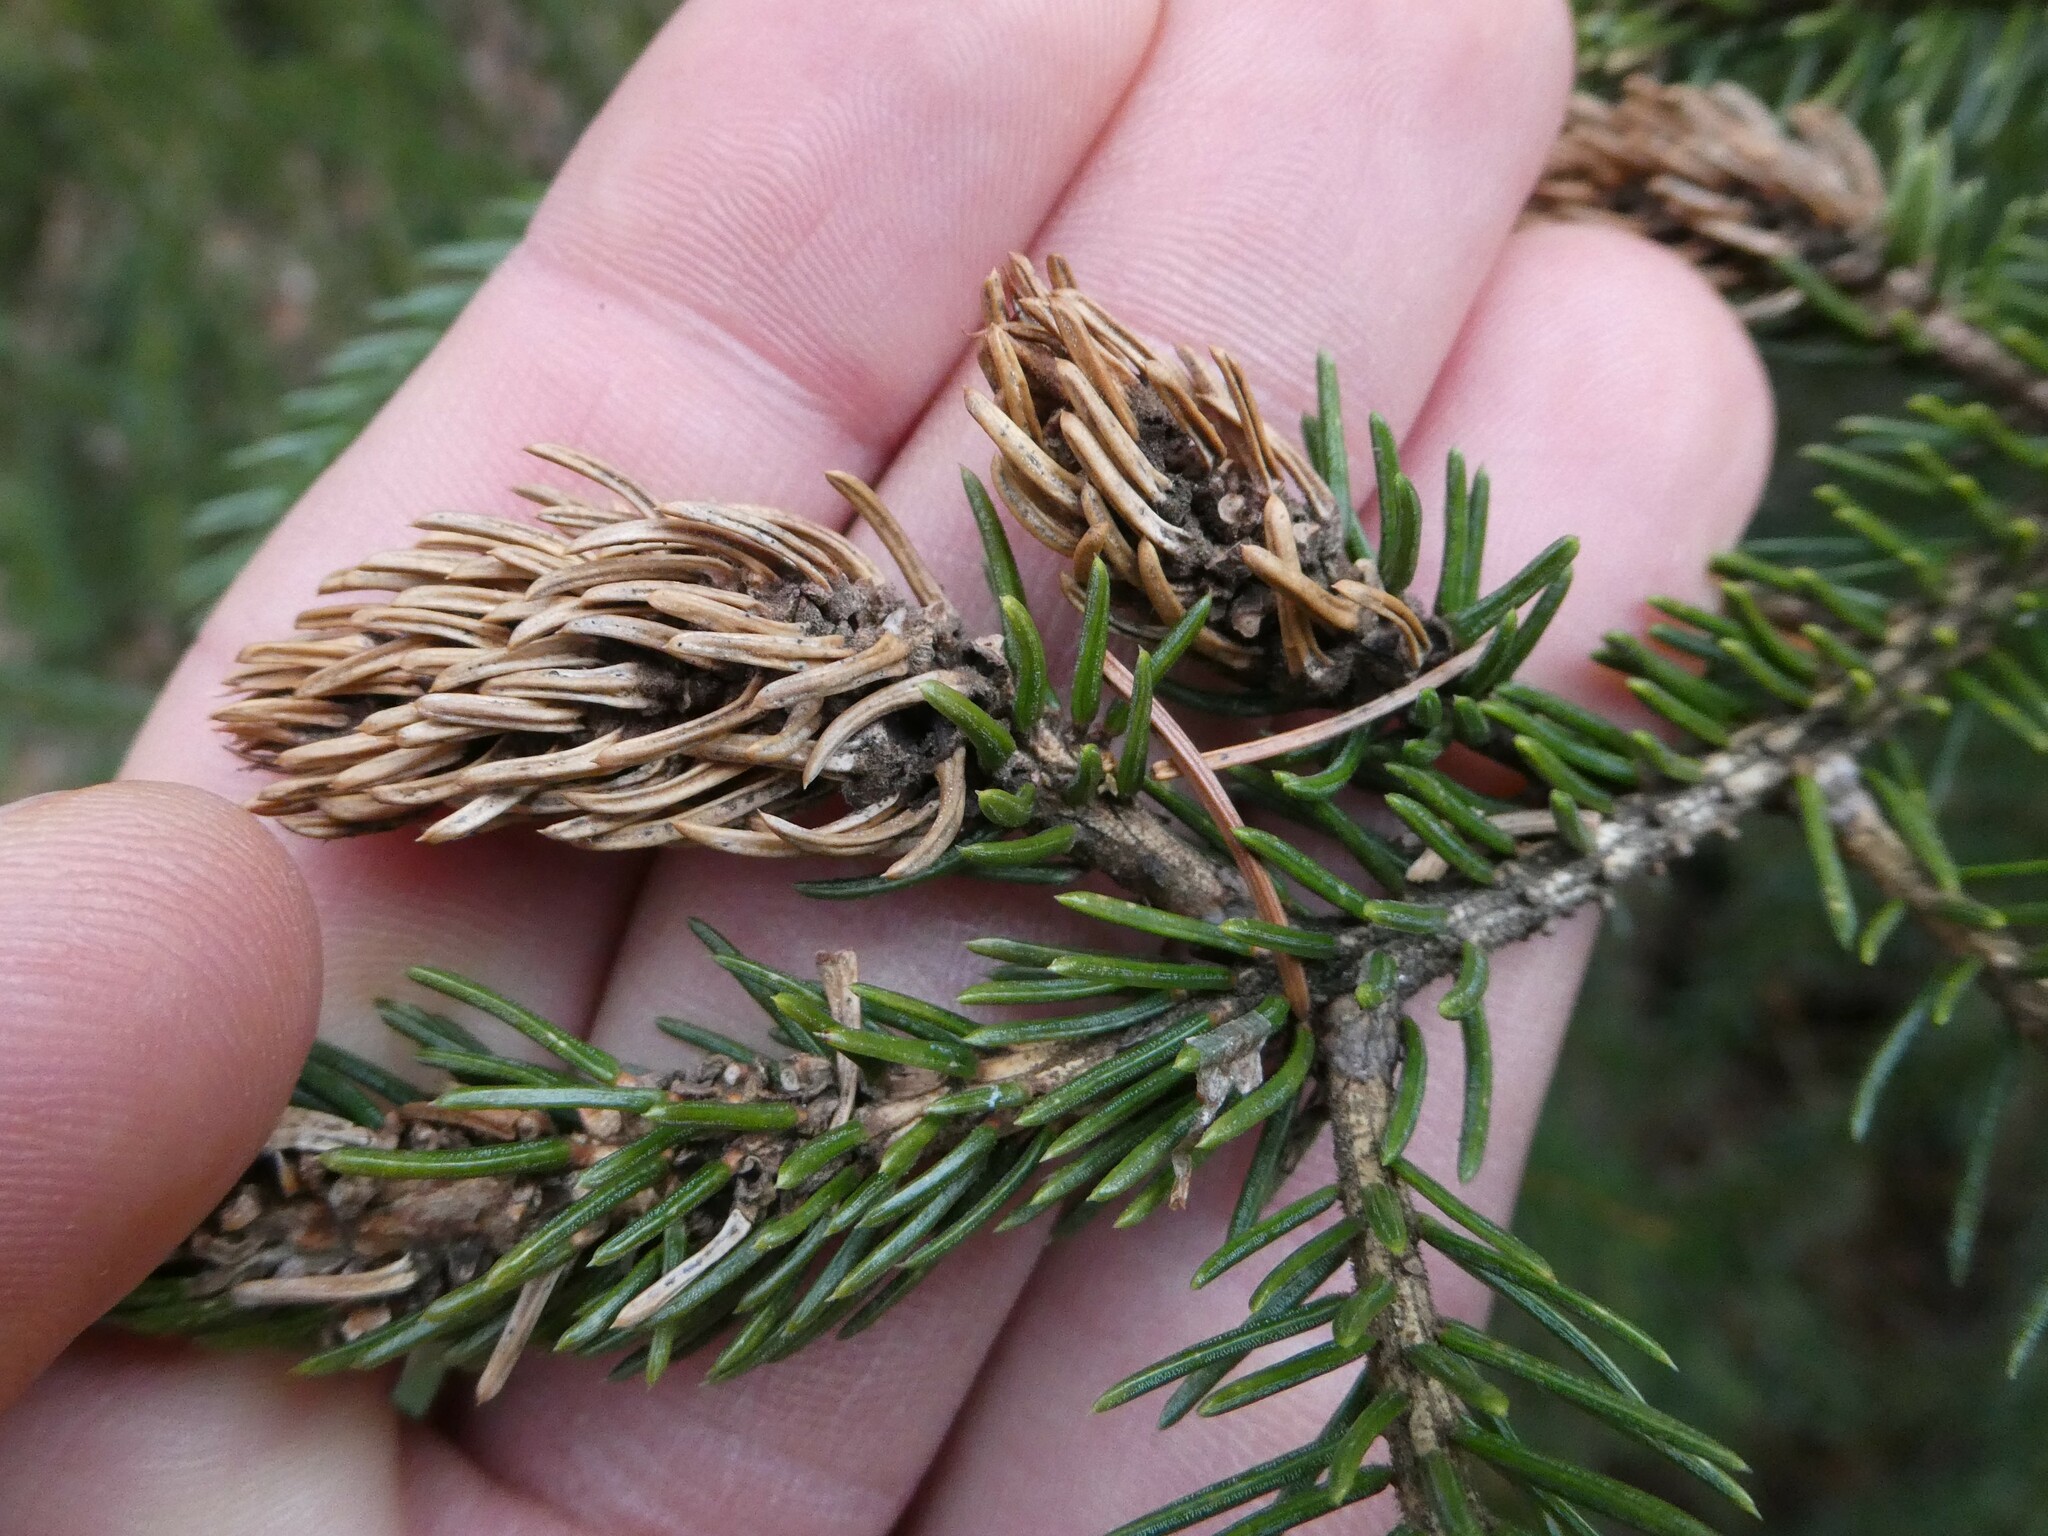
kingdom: Animalia
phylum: Arthropoda
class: Insecta
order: Hemiptera
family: Adelgidae
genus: Adelges
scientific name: Adelges abietis
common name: Eastern spruce gall adelgid
